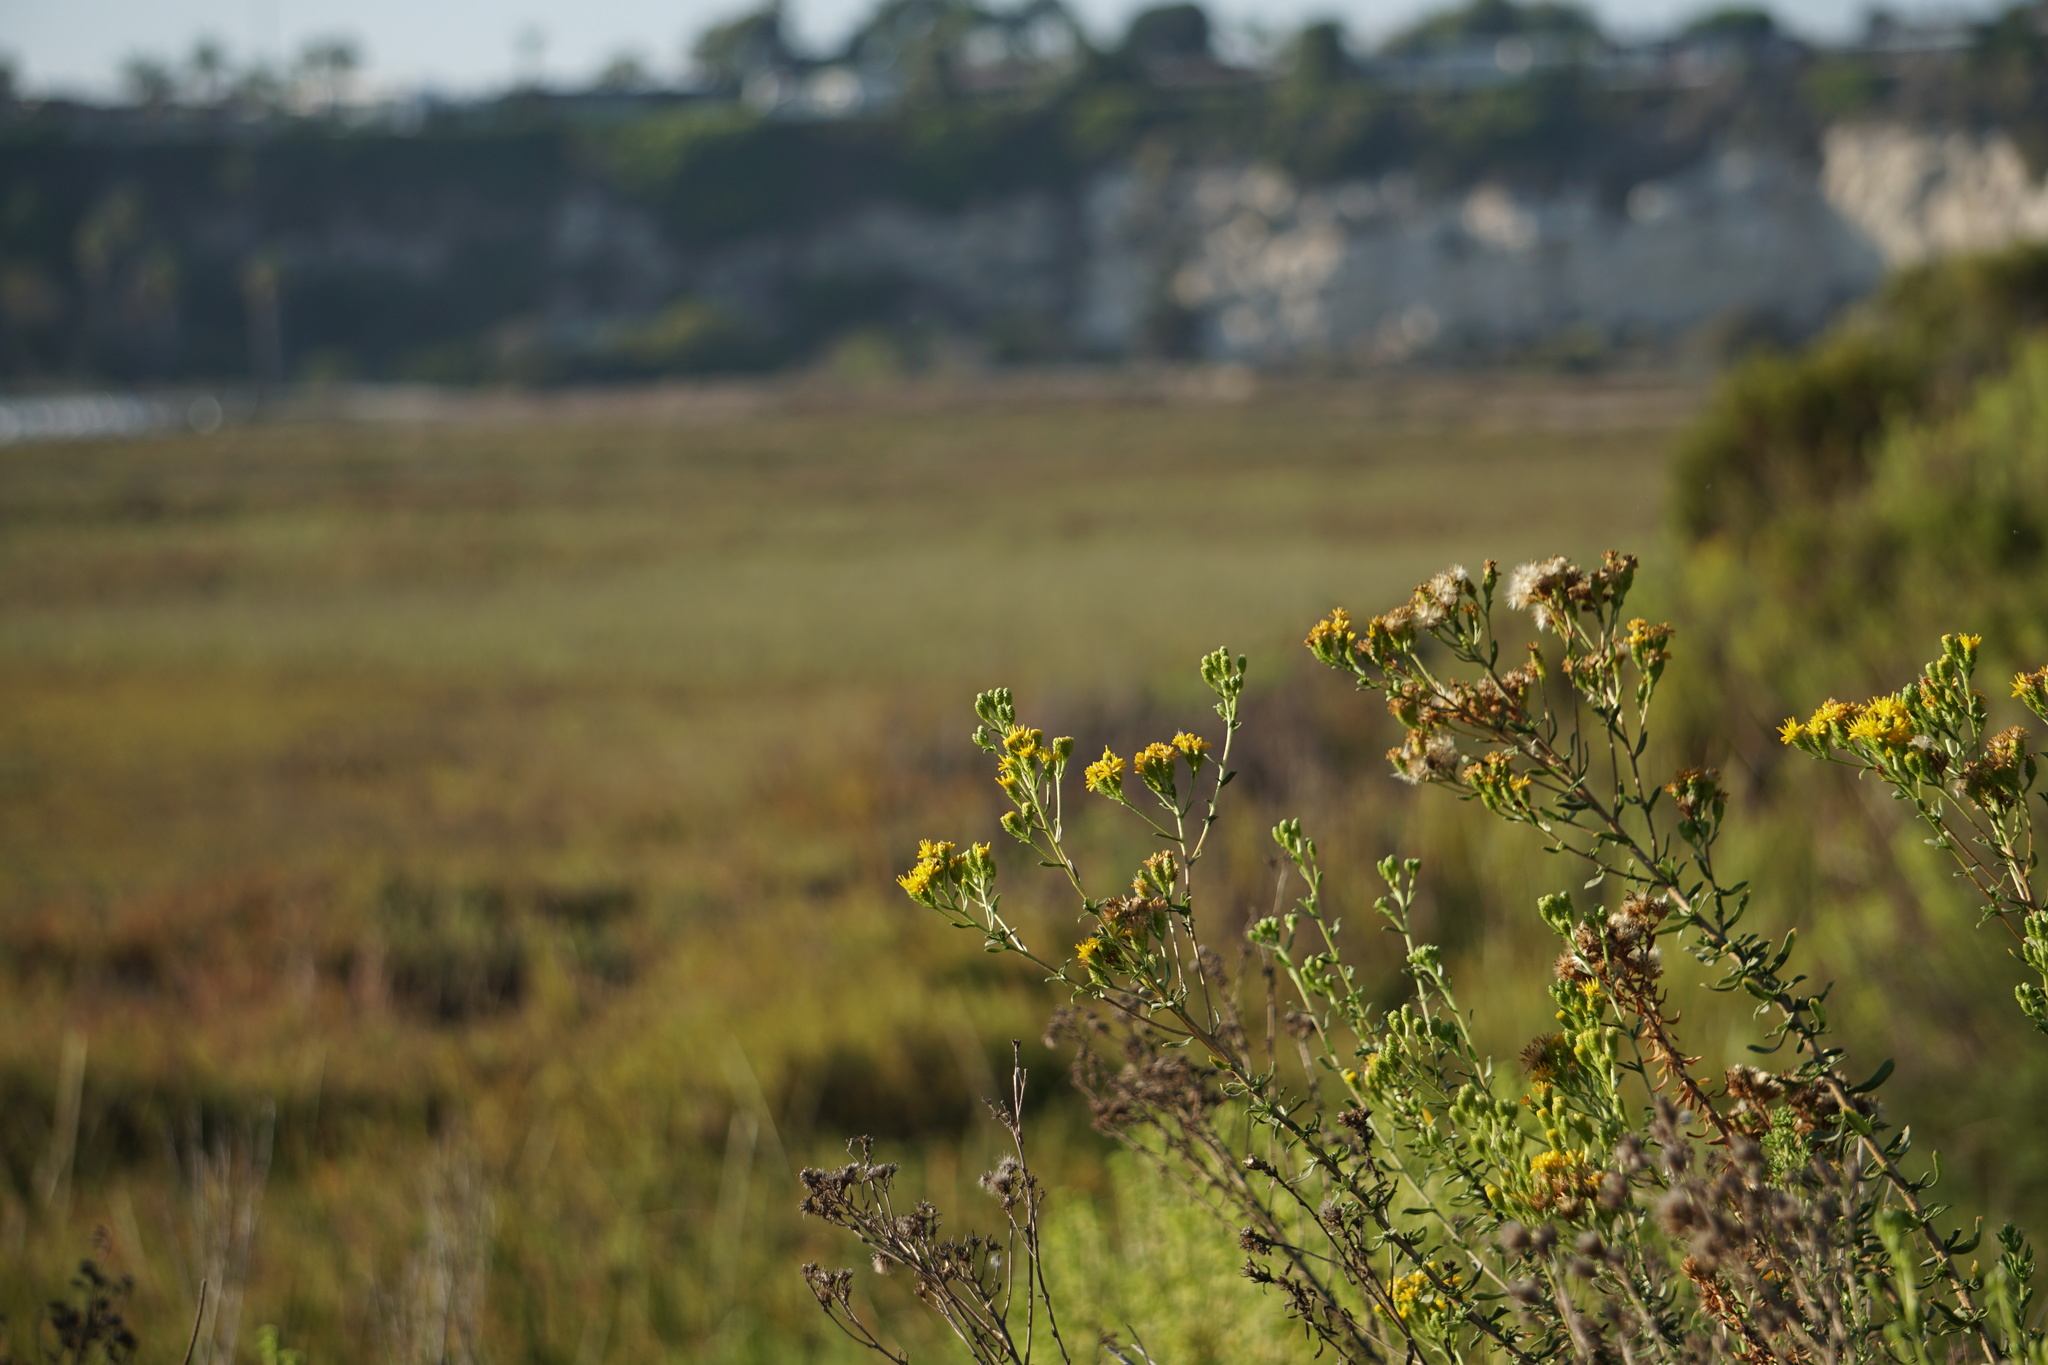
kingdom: Plantae
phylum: Tracheophyta
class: Magnoliopsida
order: Asterales
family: Asteraceae
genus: Isocoma
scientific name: Isocoma menziesii
